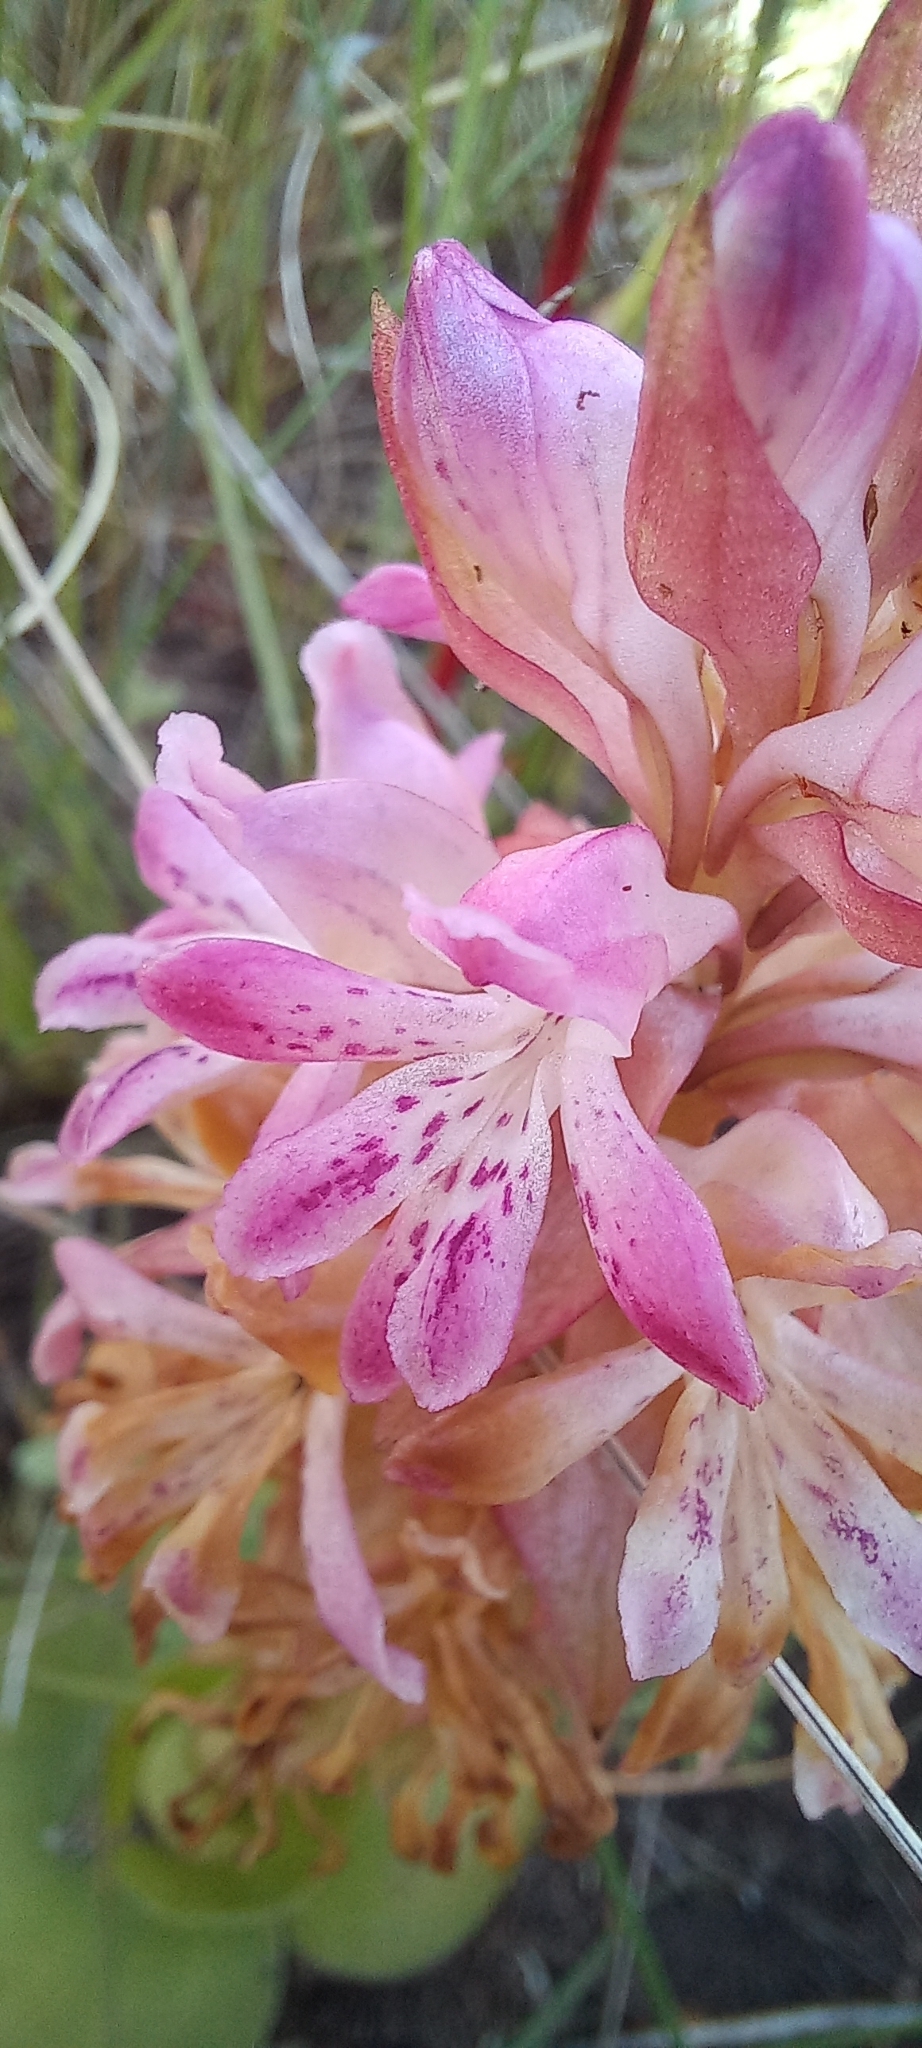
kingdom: Plantae
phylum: Tracheophyta
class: Liliopsida
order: Asparagales
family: Orchidaceae
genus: Satyrium
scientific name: Satyrium erectum
